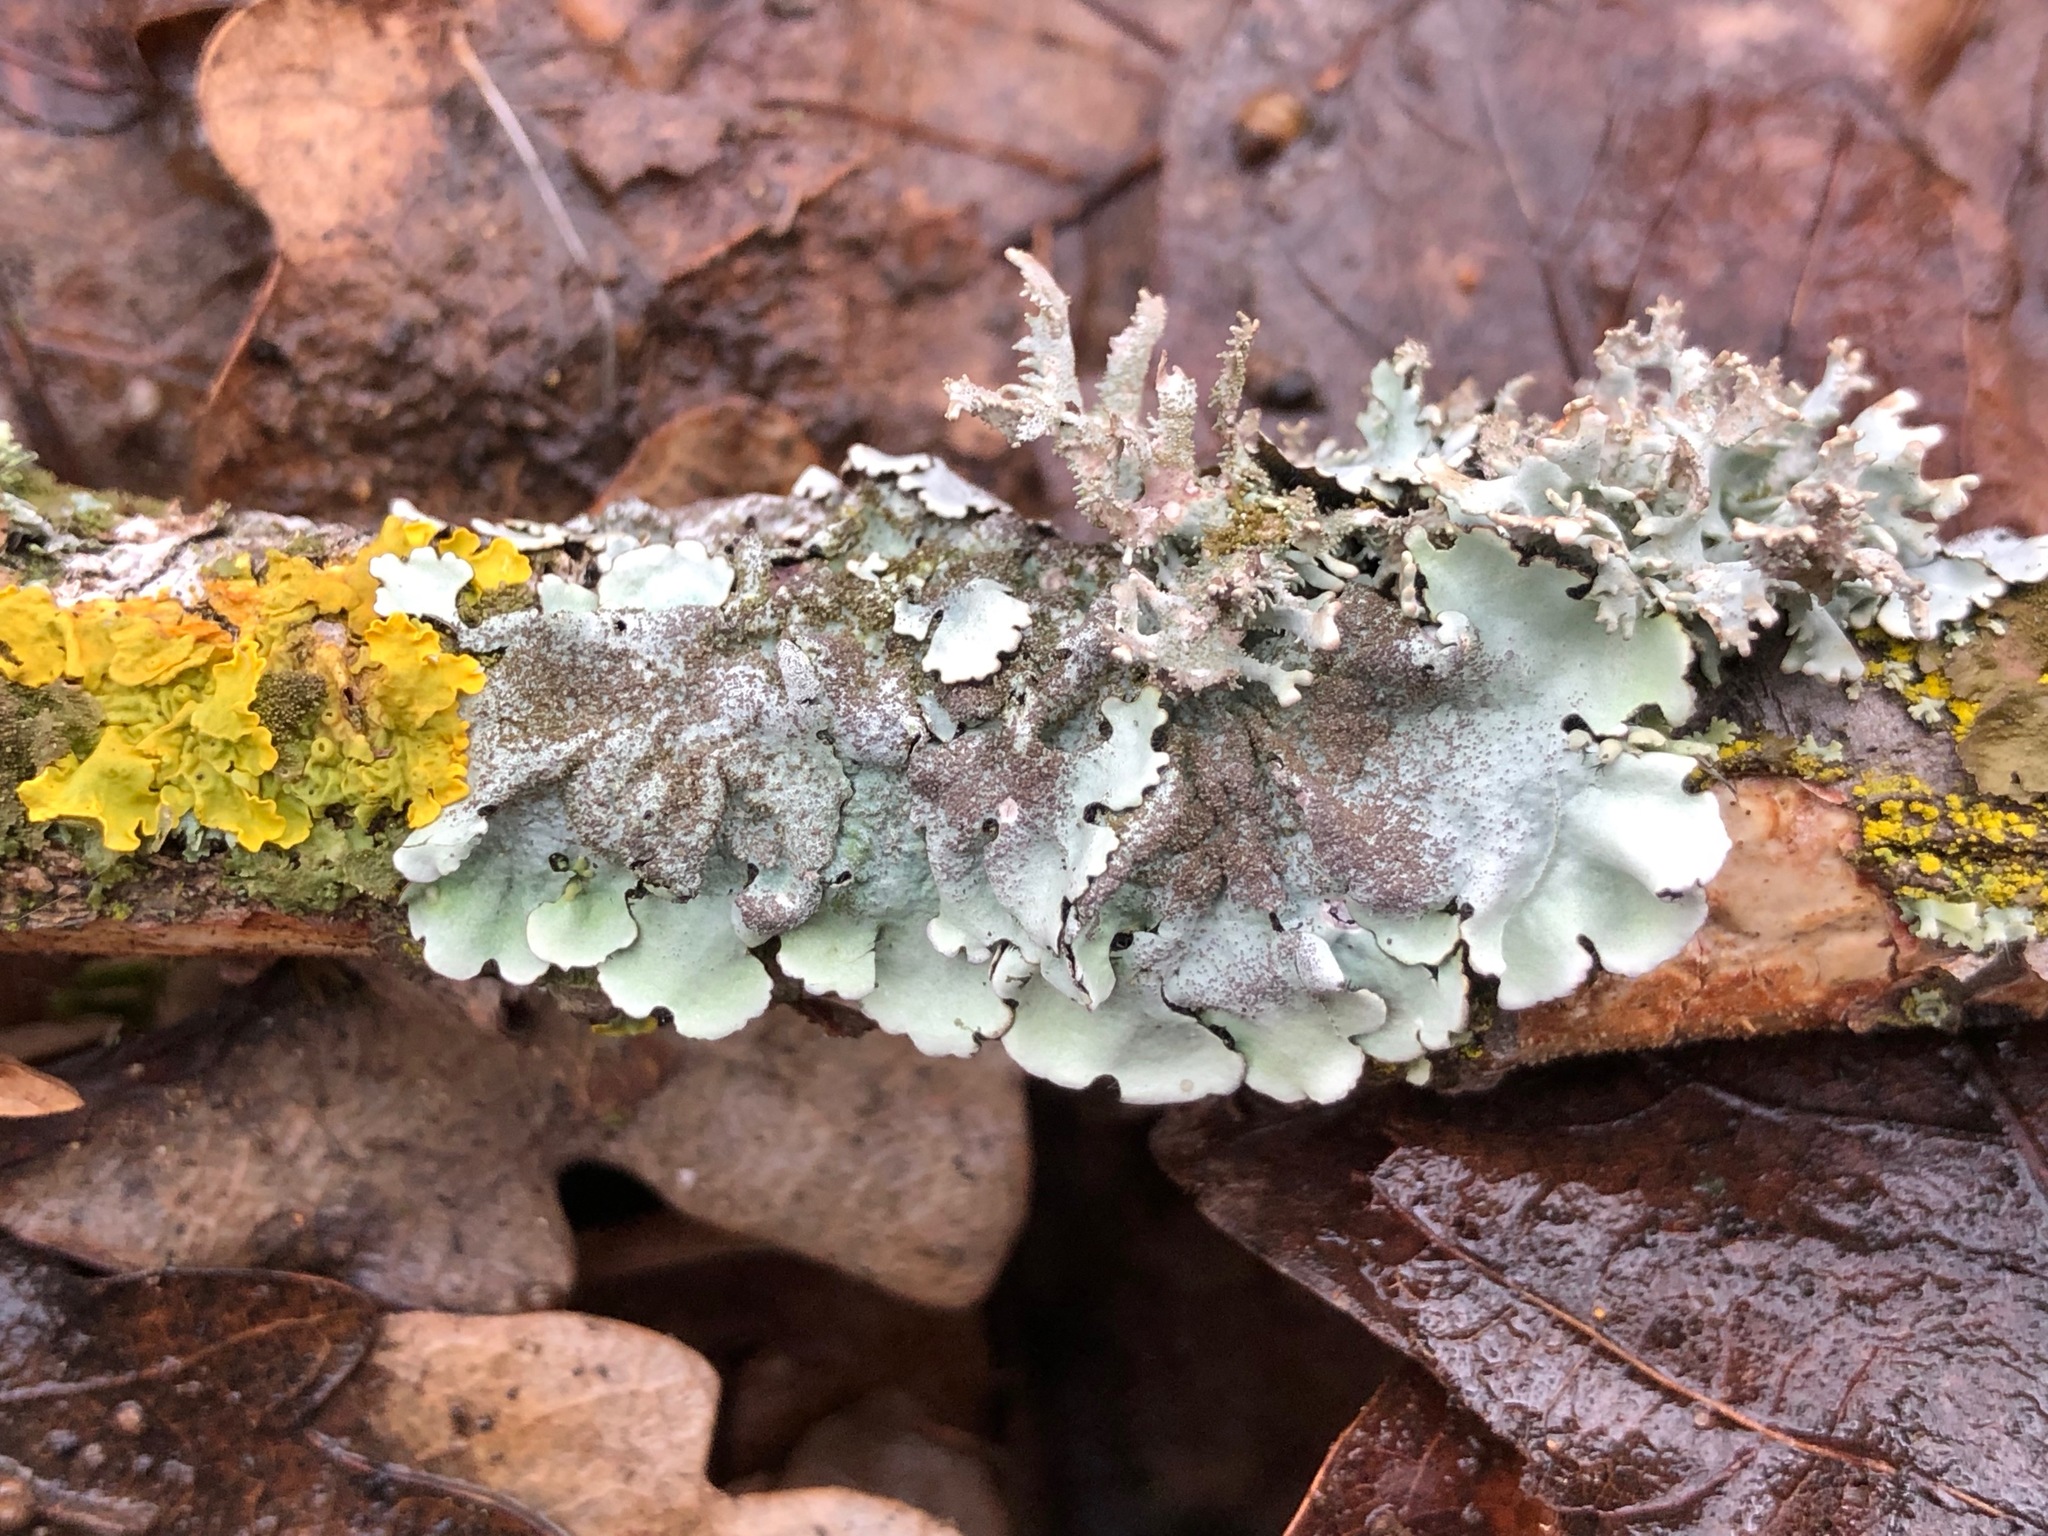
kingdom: Fungi
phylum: Ascomycota
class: Lecanoromycetes
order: Lecanorales
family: Parmeliaceae
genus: Parmelina
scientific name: Parmelina tiliacea
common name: Linden shield lichen
